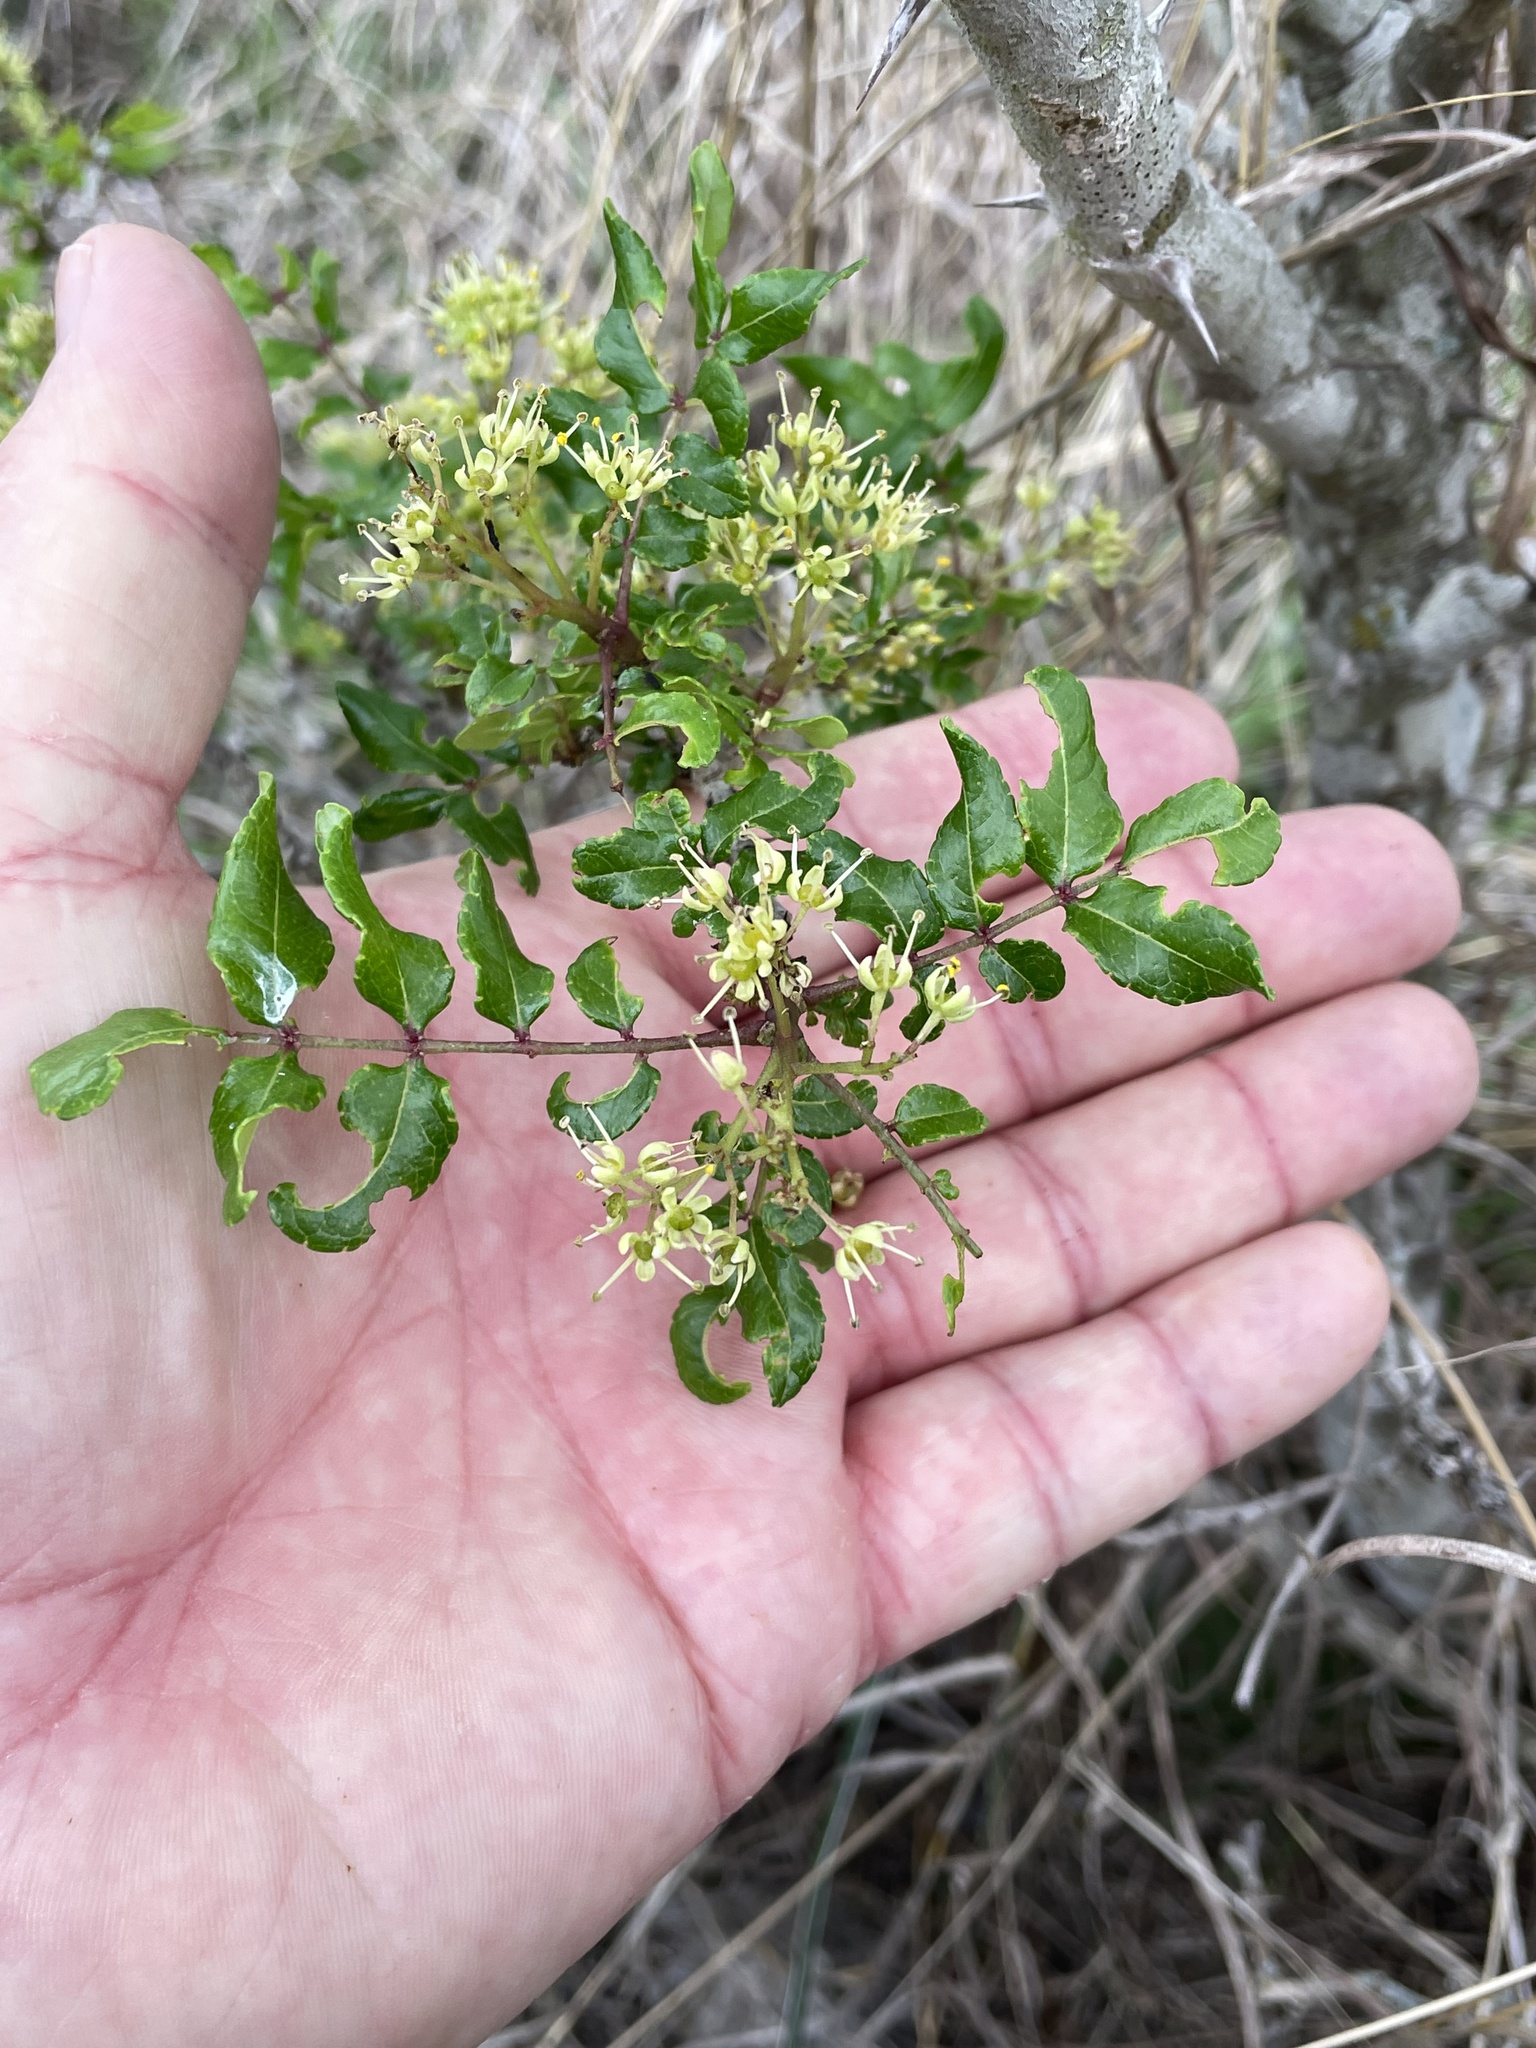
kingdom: Plantae
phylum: Tracheophyta
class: Magnoliopsida
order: Sapindales
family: Rutaceae
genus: Zanthoxylum
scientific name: Zanthoxylum clava-herculis
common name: Hercules'-club
